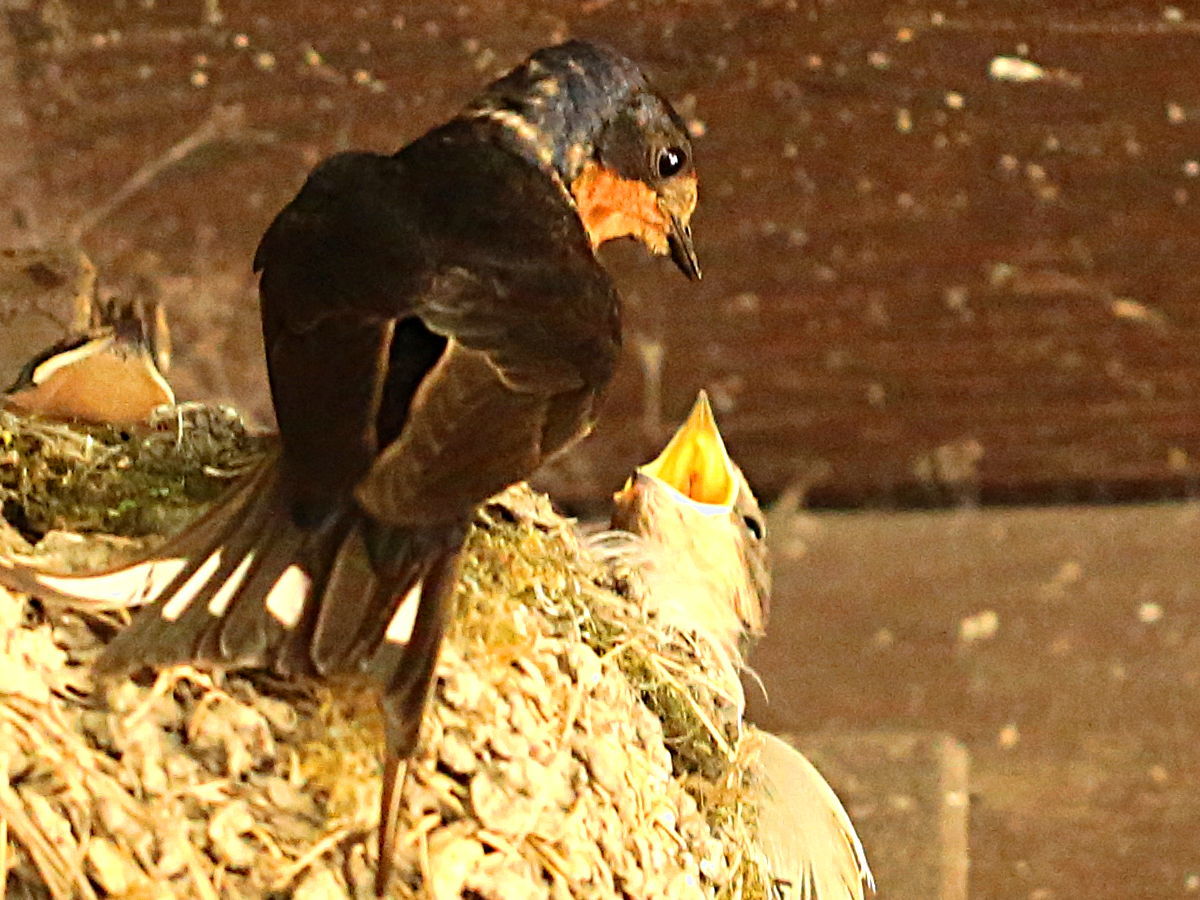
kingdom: Animalia
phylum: Chordata
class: Aves
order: Passeriformes
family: Hirundinidae
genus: Hirundo
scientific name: Hirundo rustica
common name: Barn swallow
